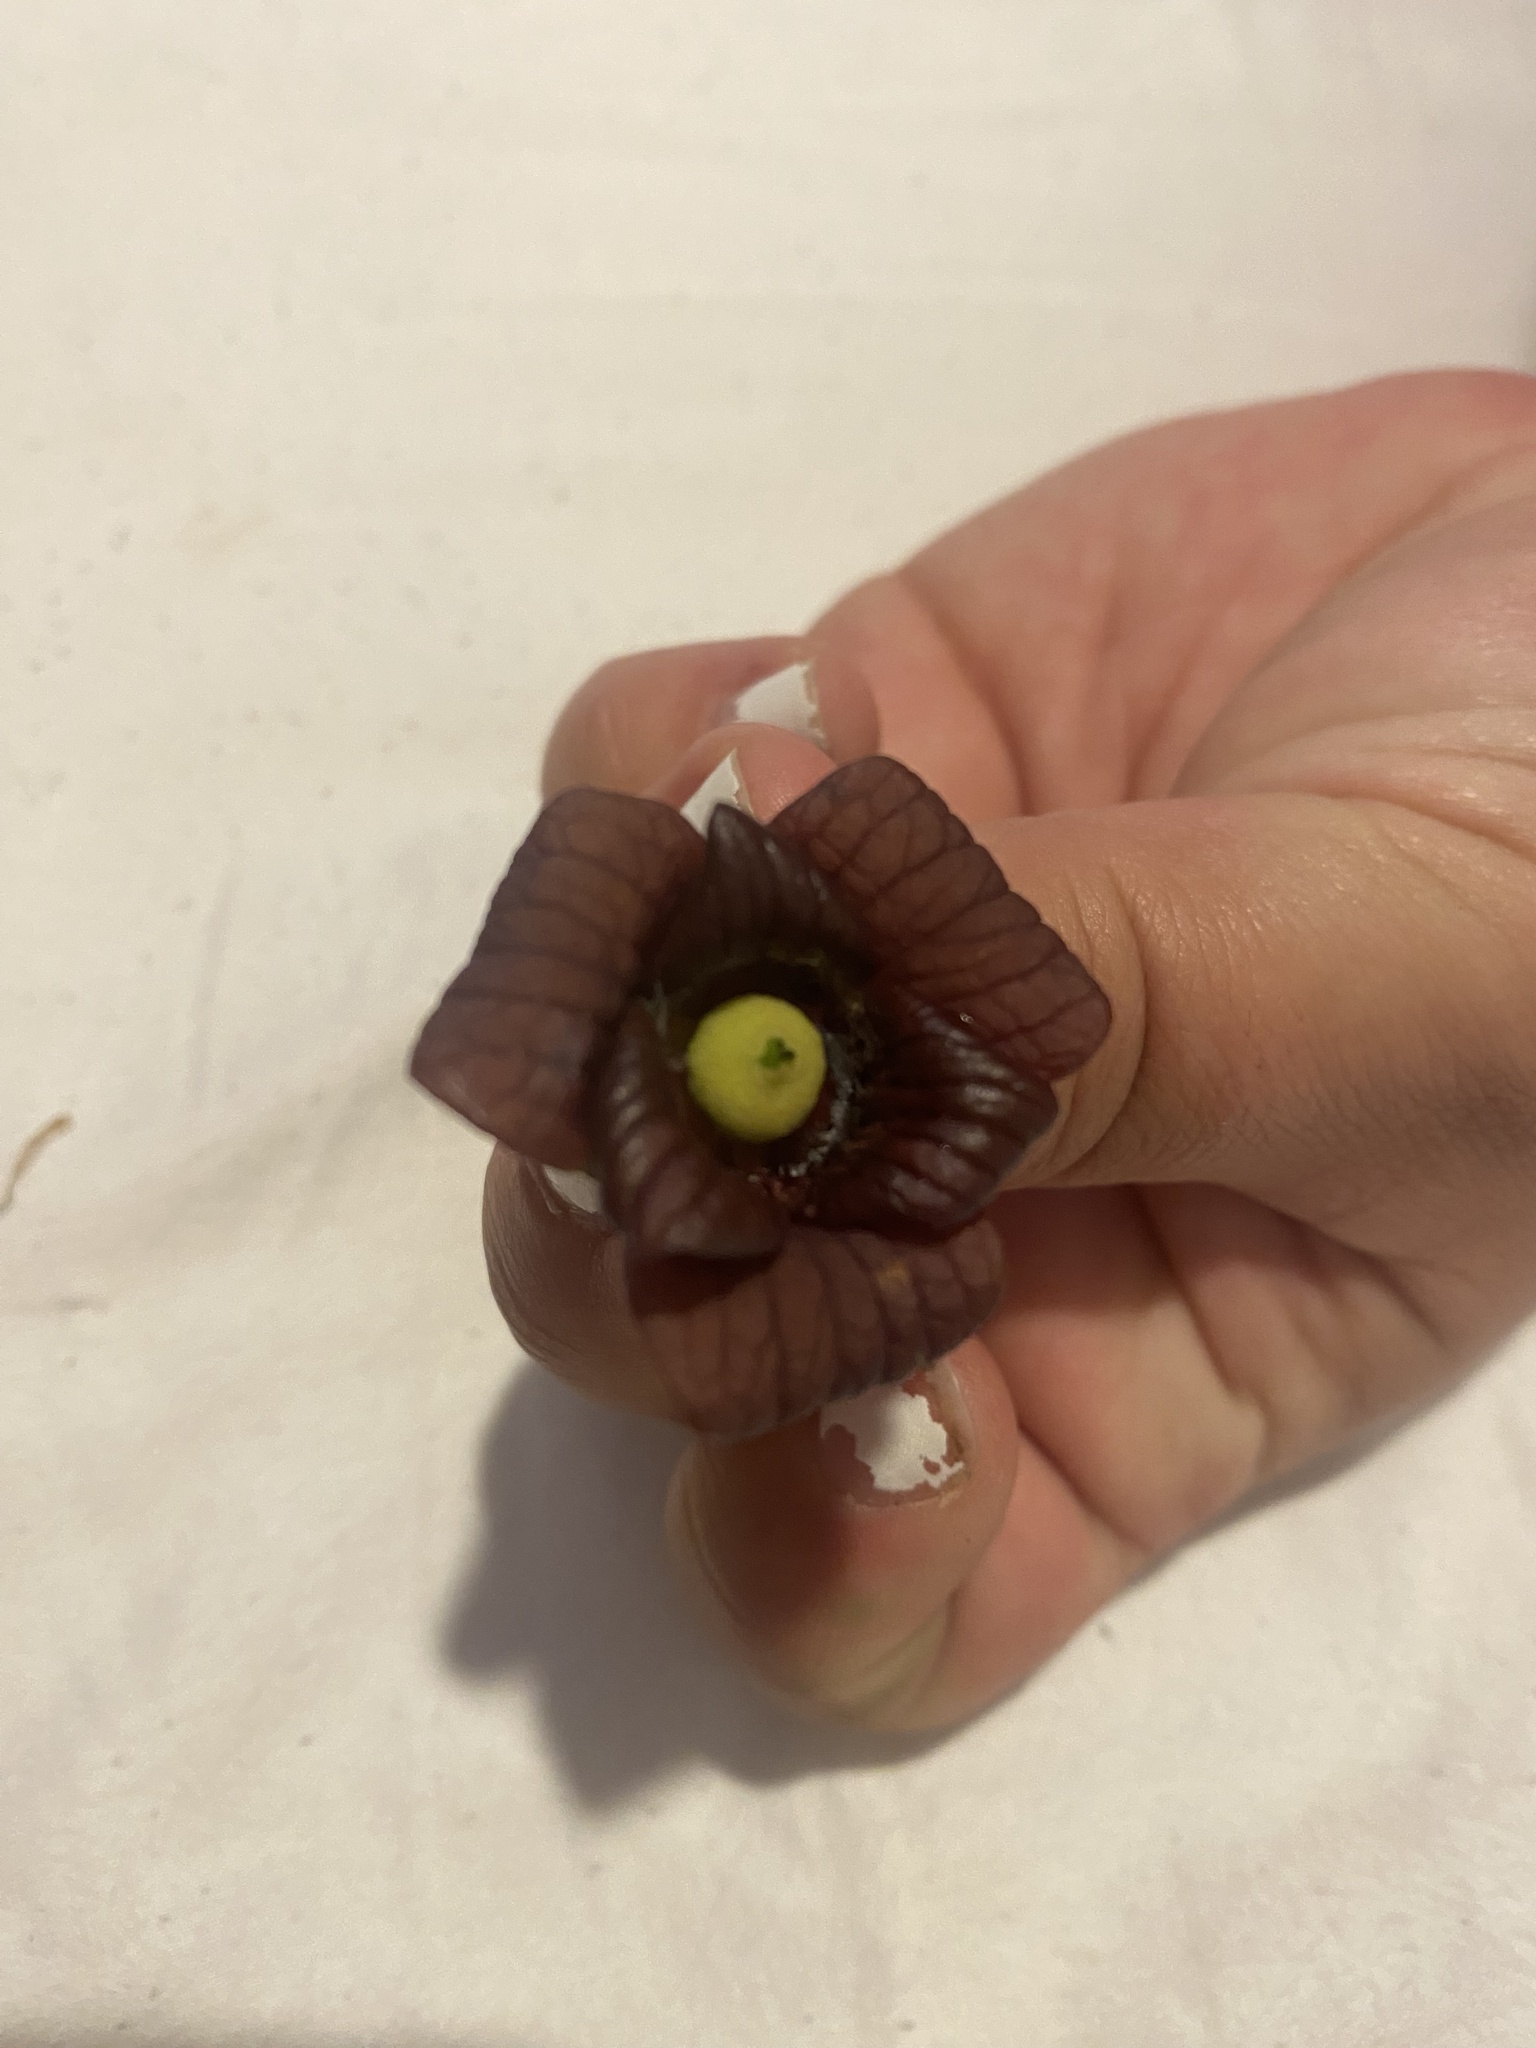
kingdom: Plantae
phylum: Tracheophyta
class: Magnoliopsida
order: Magnoliales
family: Annonaceae
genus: Asimina
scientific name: Asimina triloba
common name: Dog-banana
